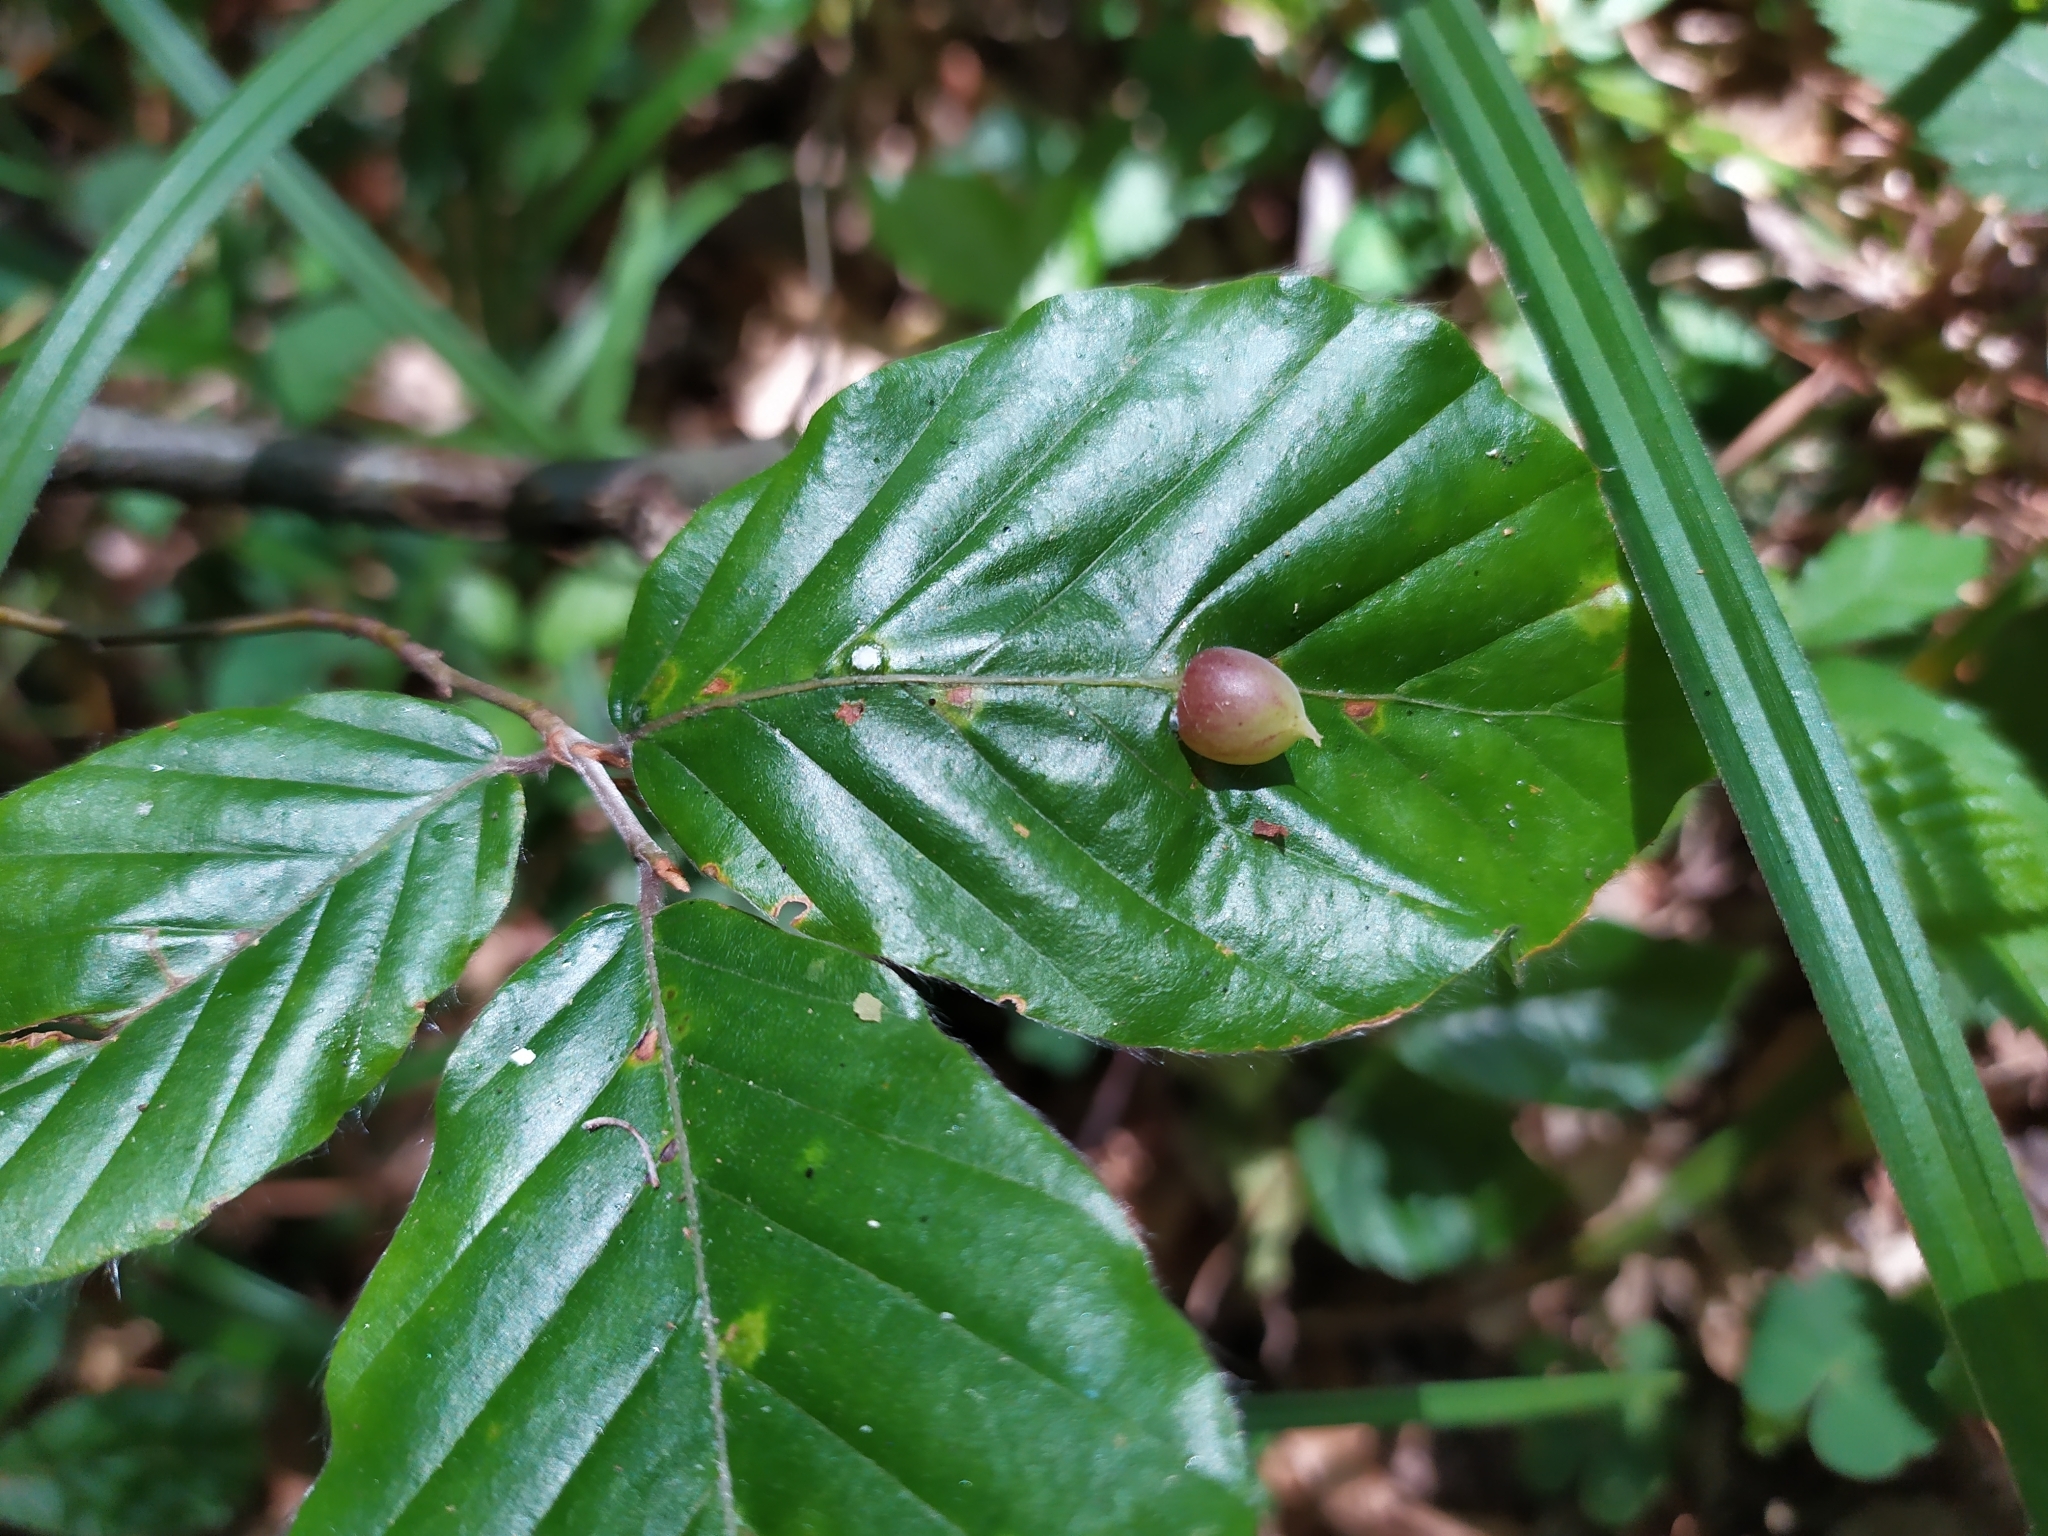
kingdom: Animalia
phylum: Arthropoda
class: Insecta
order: Diptera
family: Cecidomyiidae
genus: Mikiola
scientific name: Mikiola fagi
